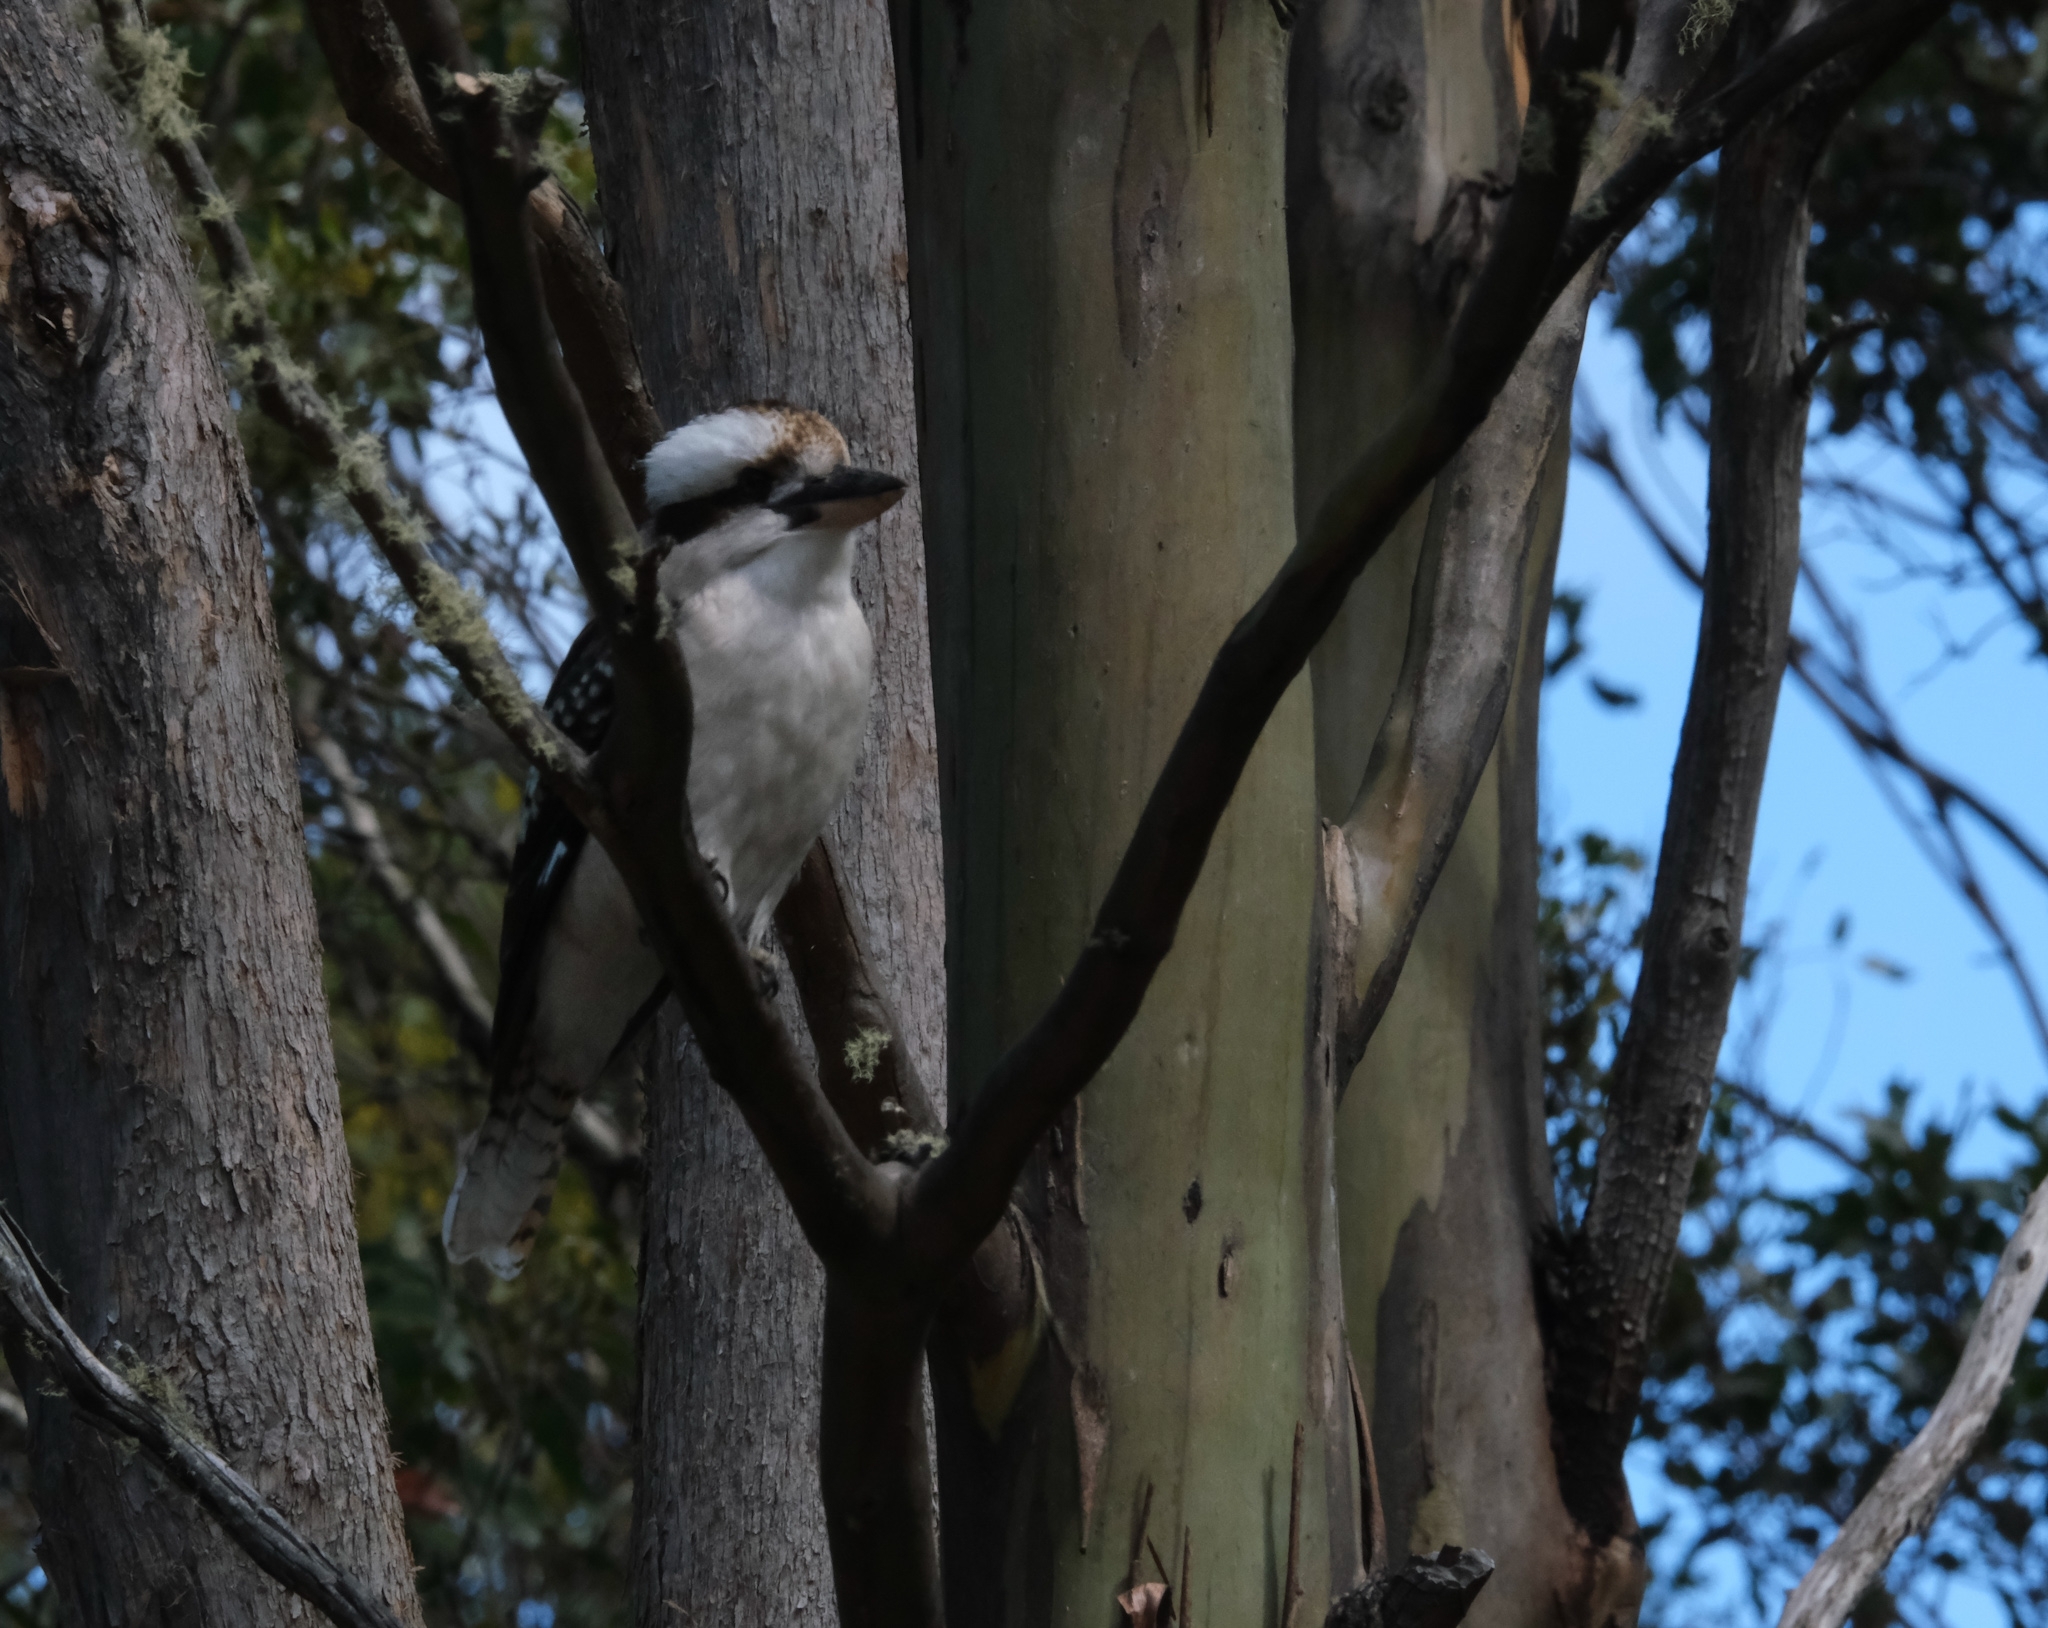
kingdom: Animalia
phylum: Chordata
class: Aves
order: Coraciiformes
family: Alcedinidae
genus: Dacelo
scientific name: Dacelo novaeguineae
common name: Laughing kookaburra
